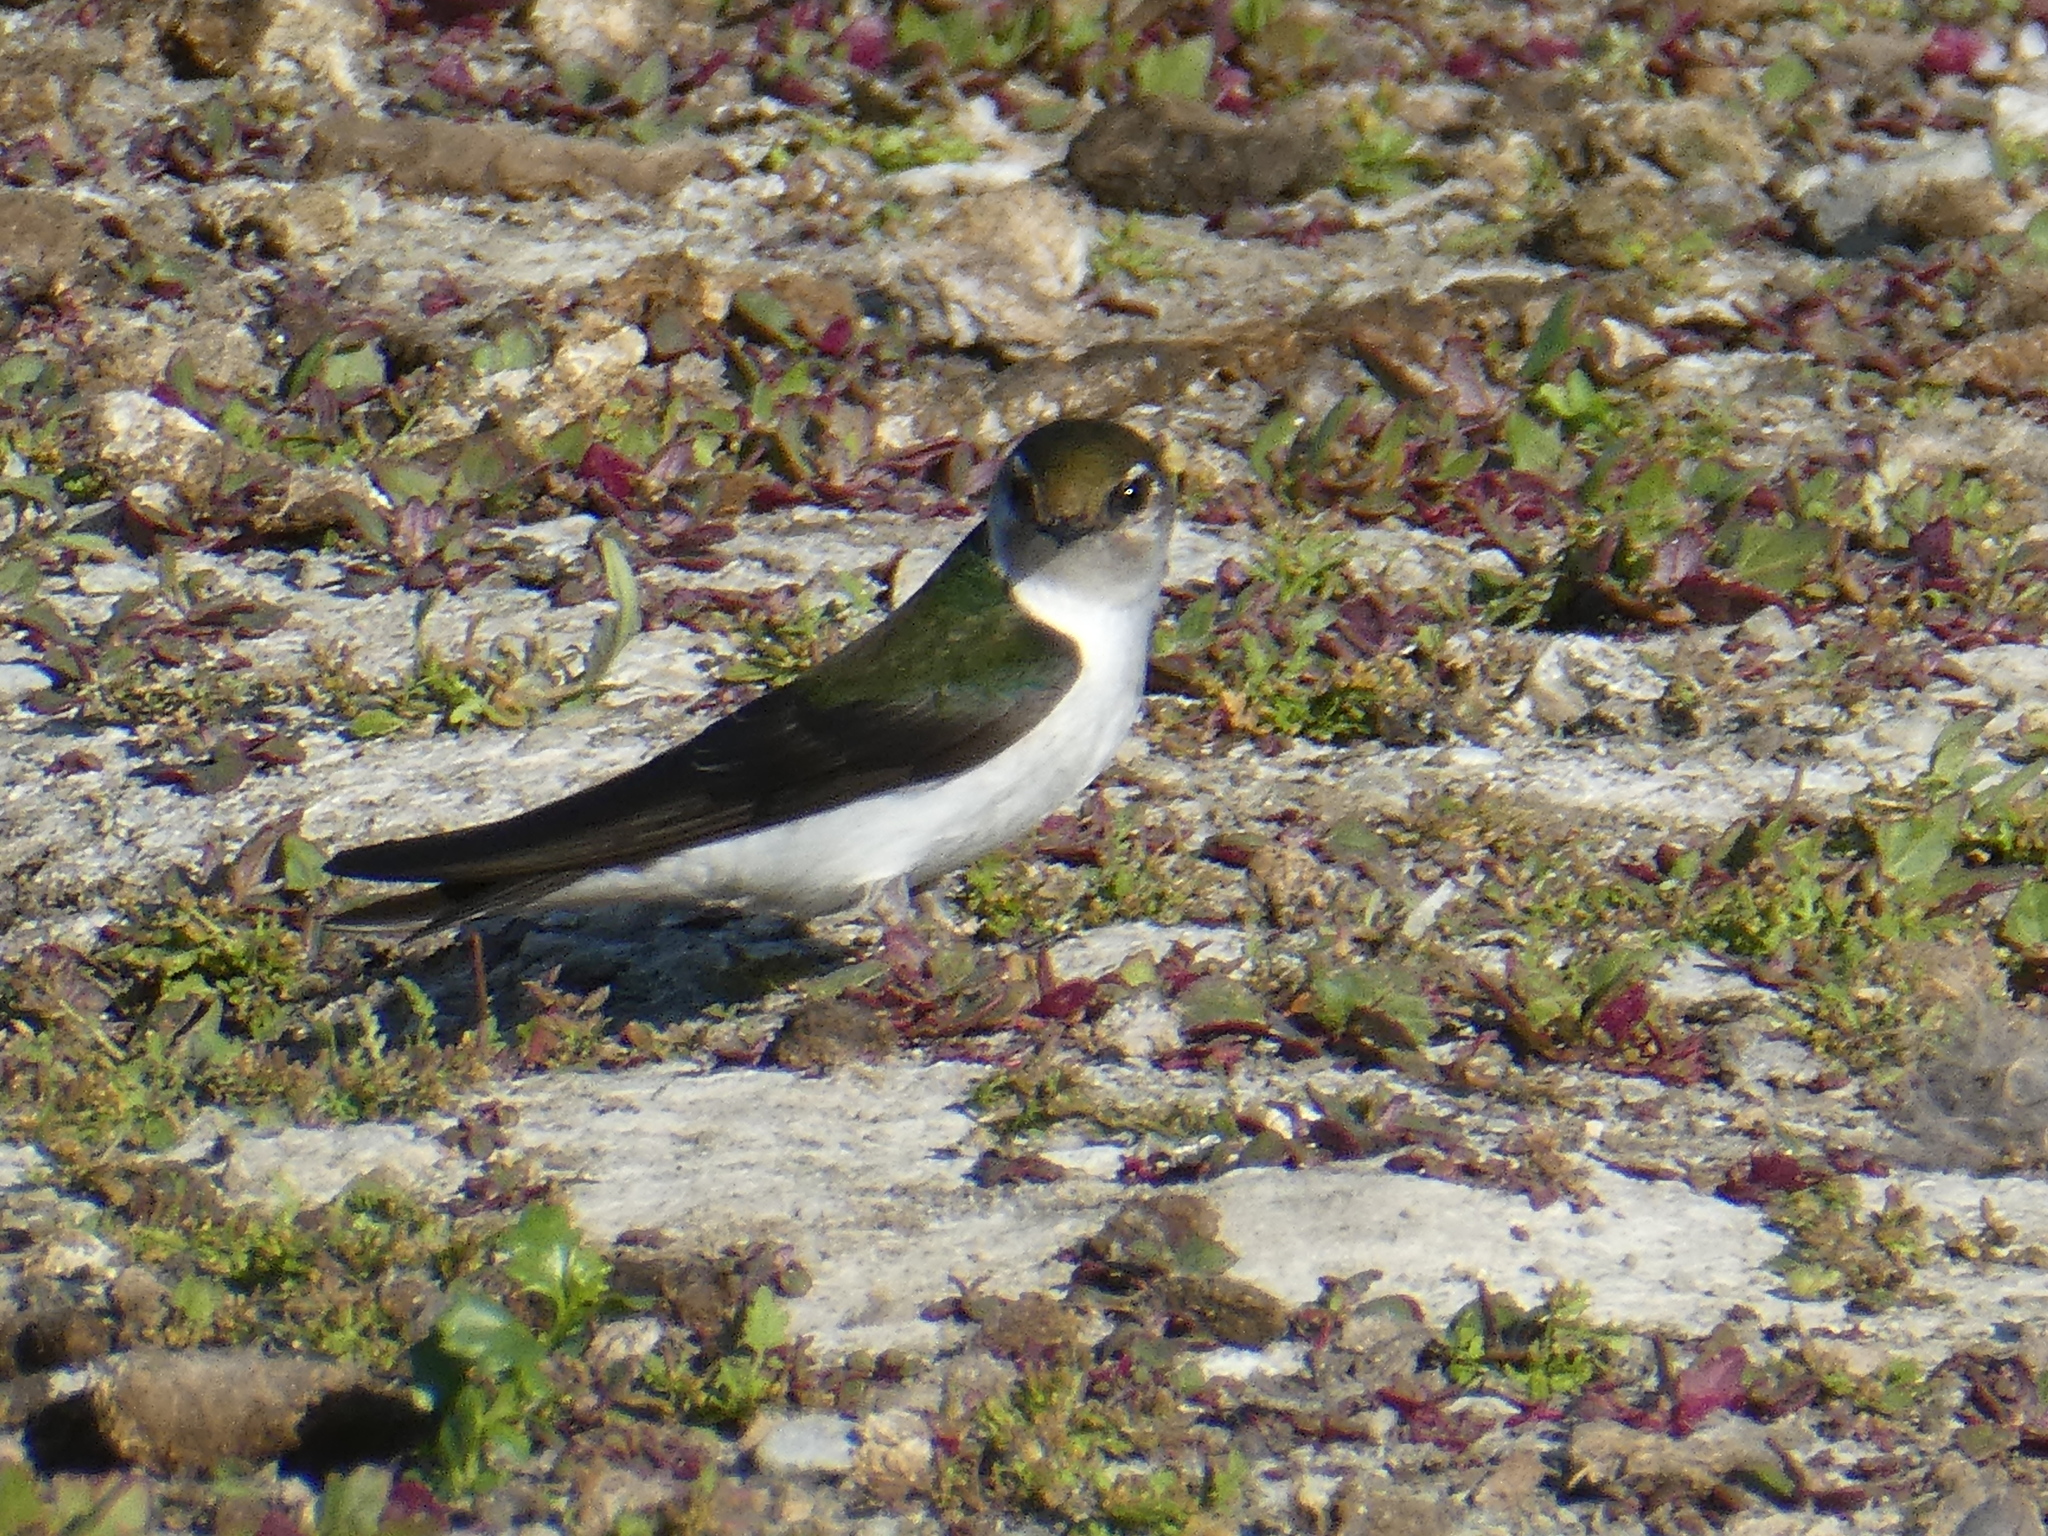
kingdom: Animalia
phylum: Chordata
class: Aves
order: Passeriformes
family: Hirundinidae
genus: Tachycineta
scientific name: Tachycineta thalassina
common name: Violet-green swallow
